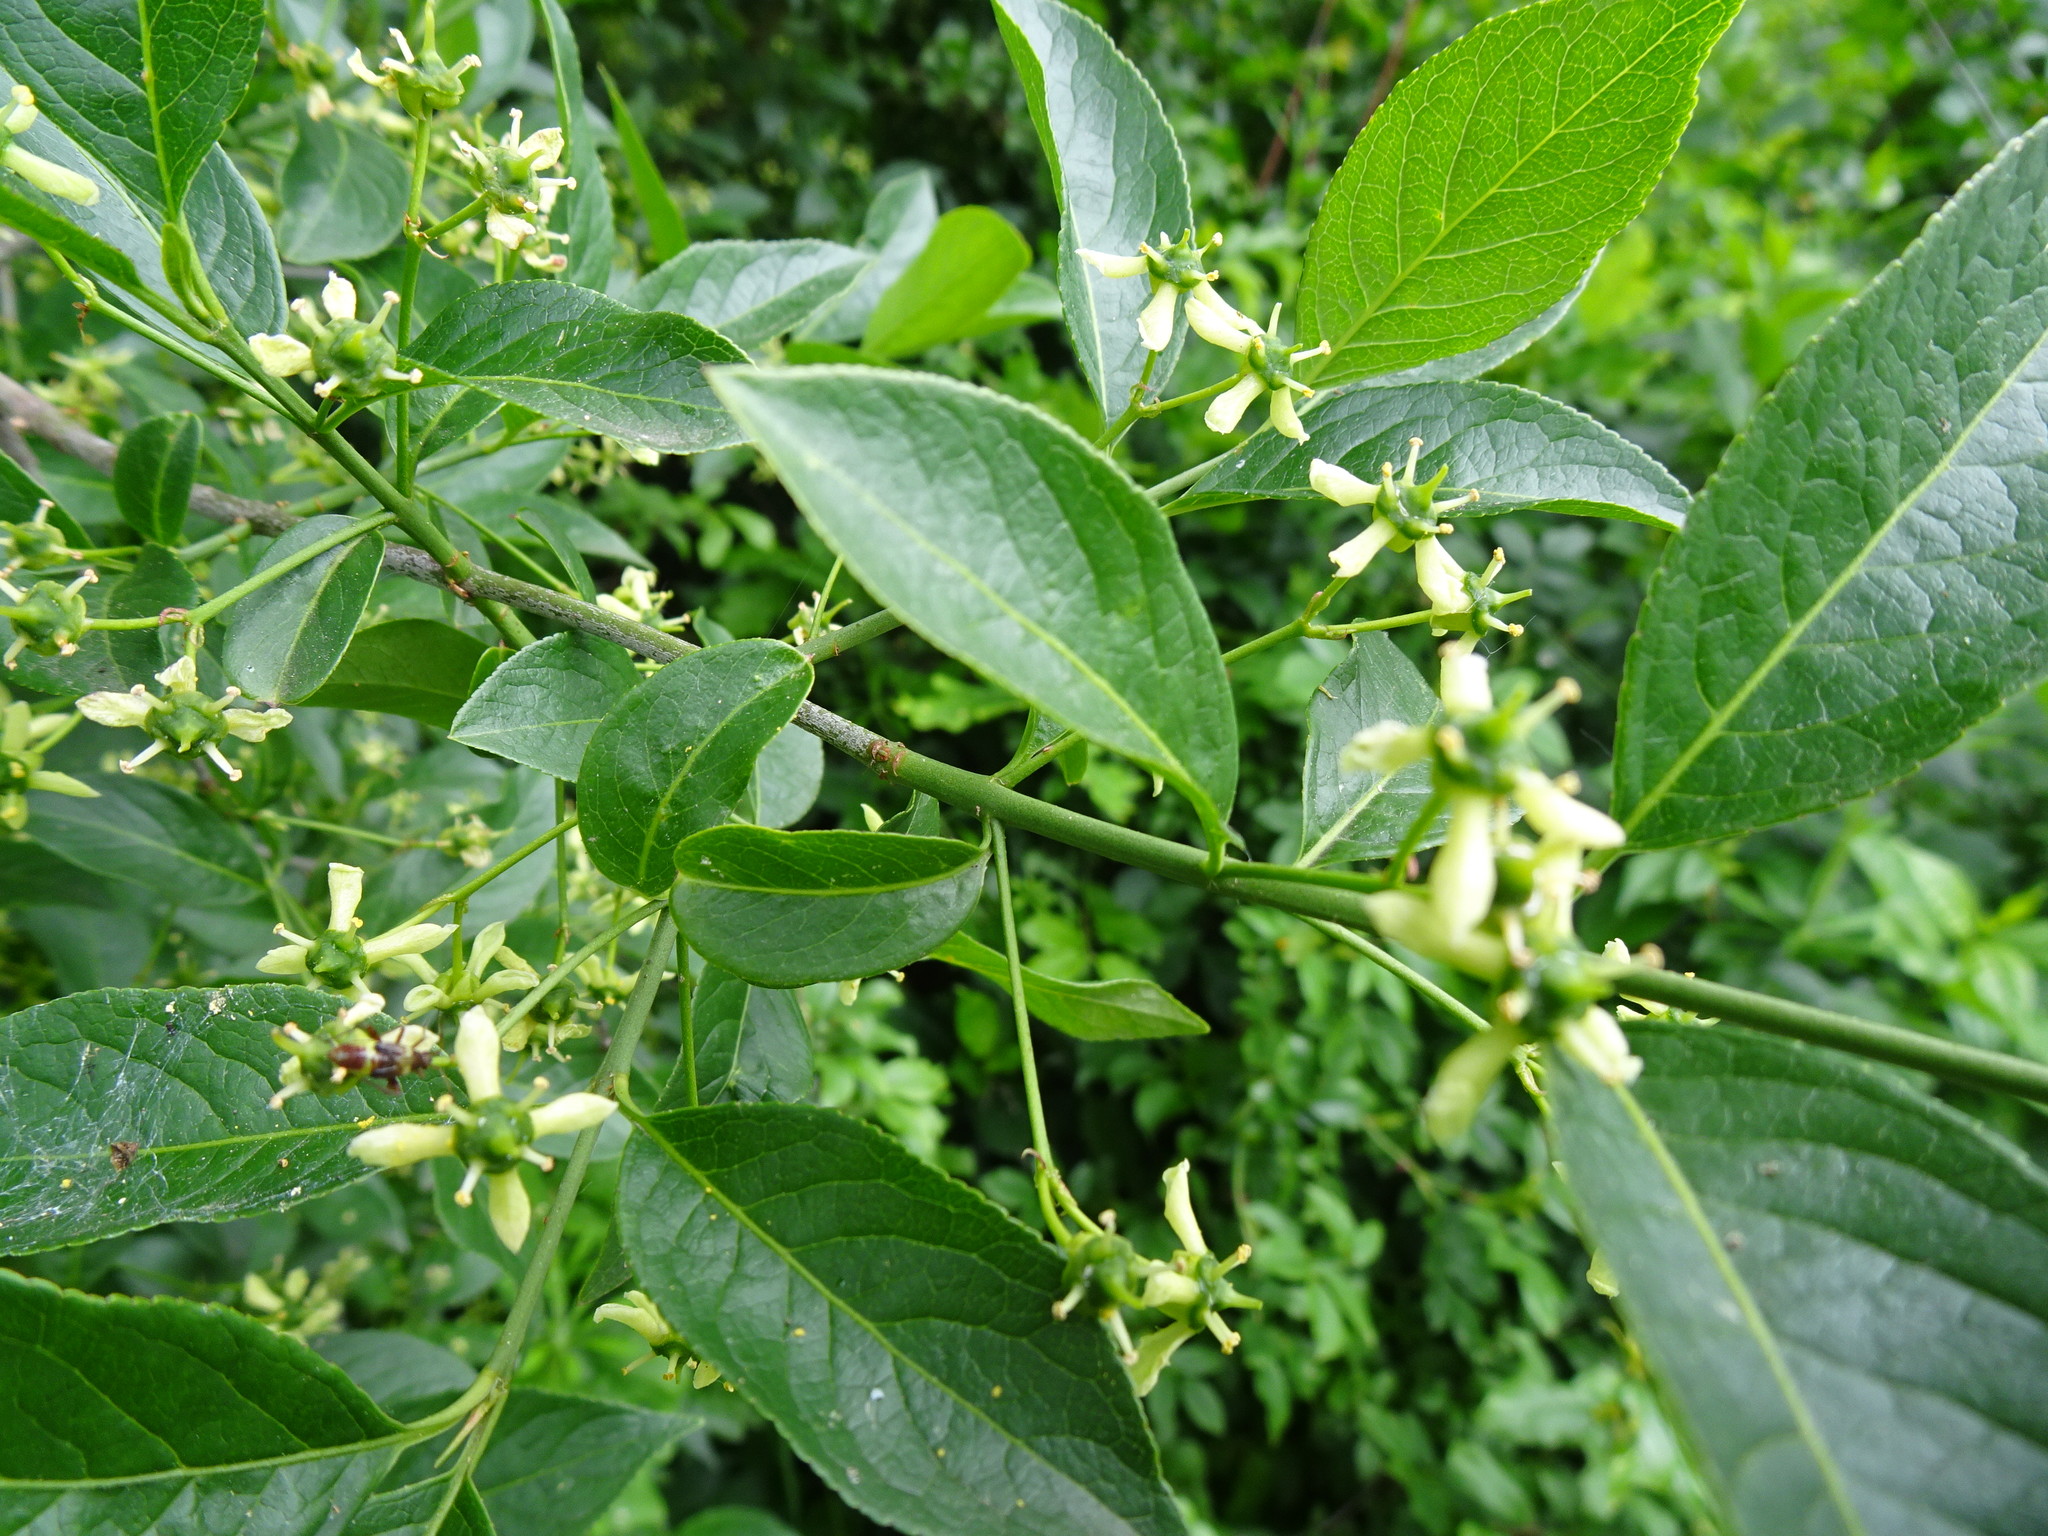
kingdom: Plantae
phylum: Tracheophyta
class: Magnoliopsida
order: Celastrales
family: Celastraceae
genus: Euonymus
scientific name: Euonymus europaeus
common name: Spindle
